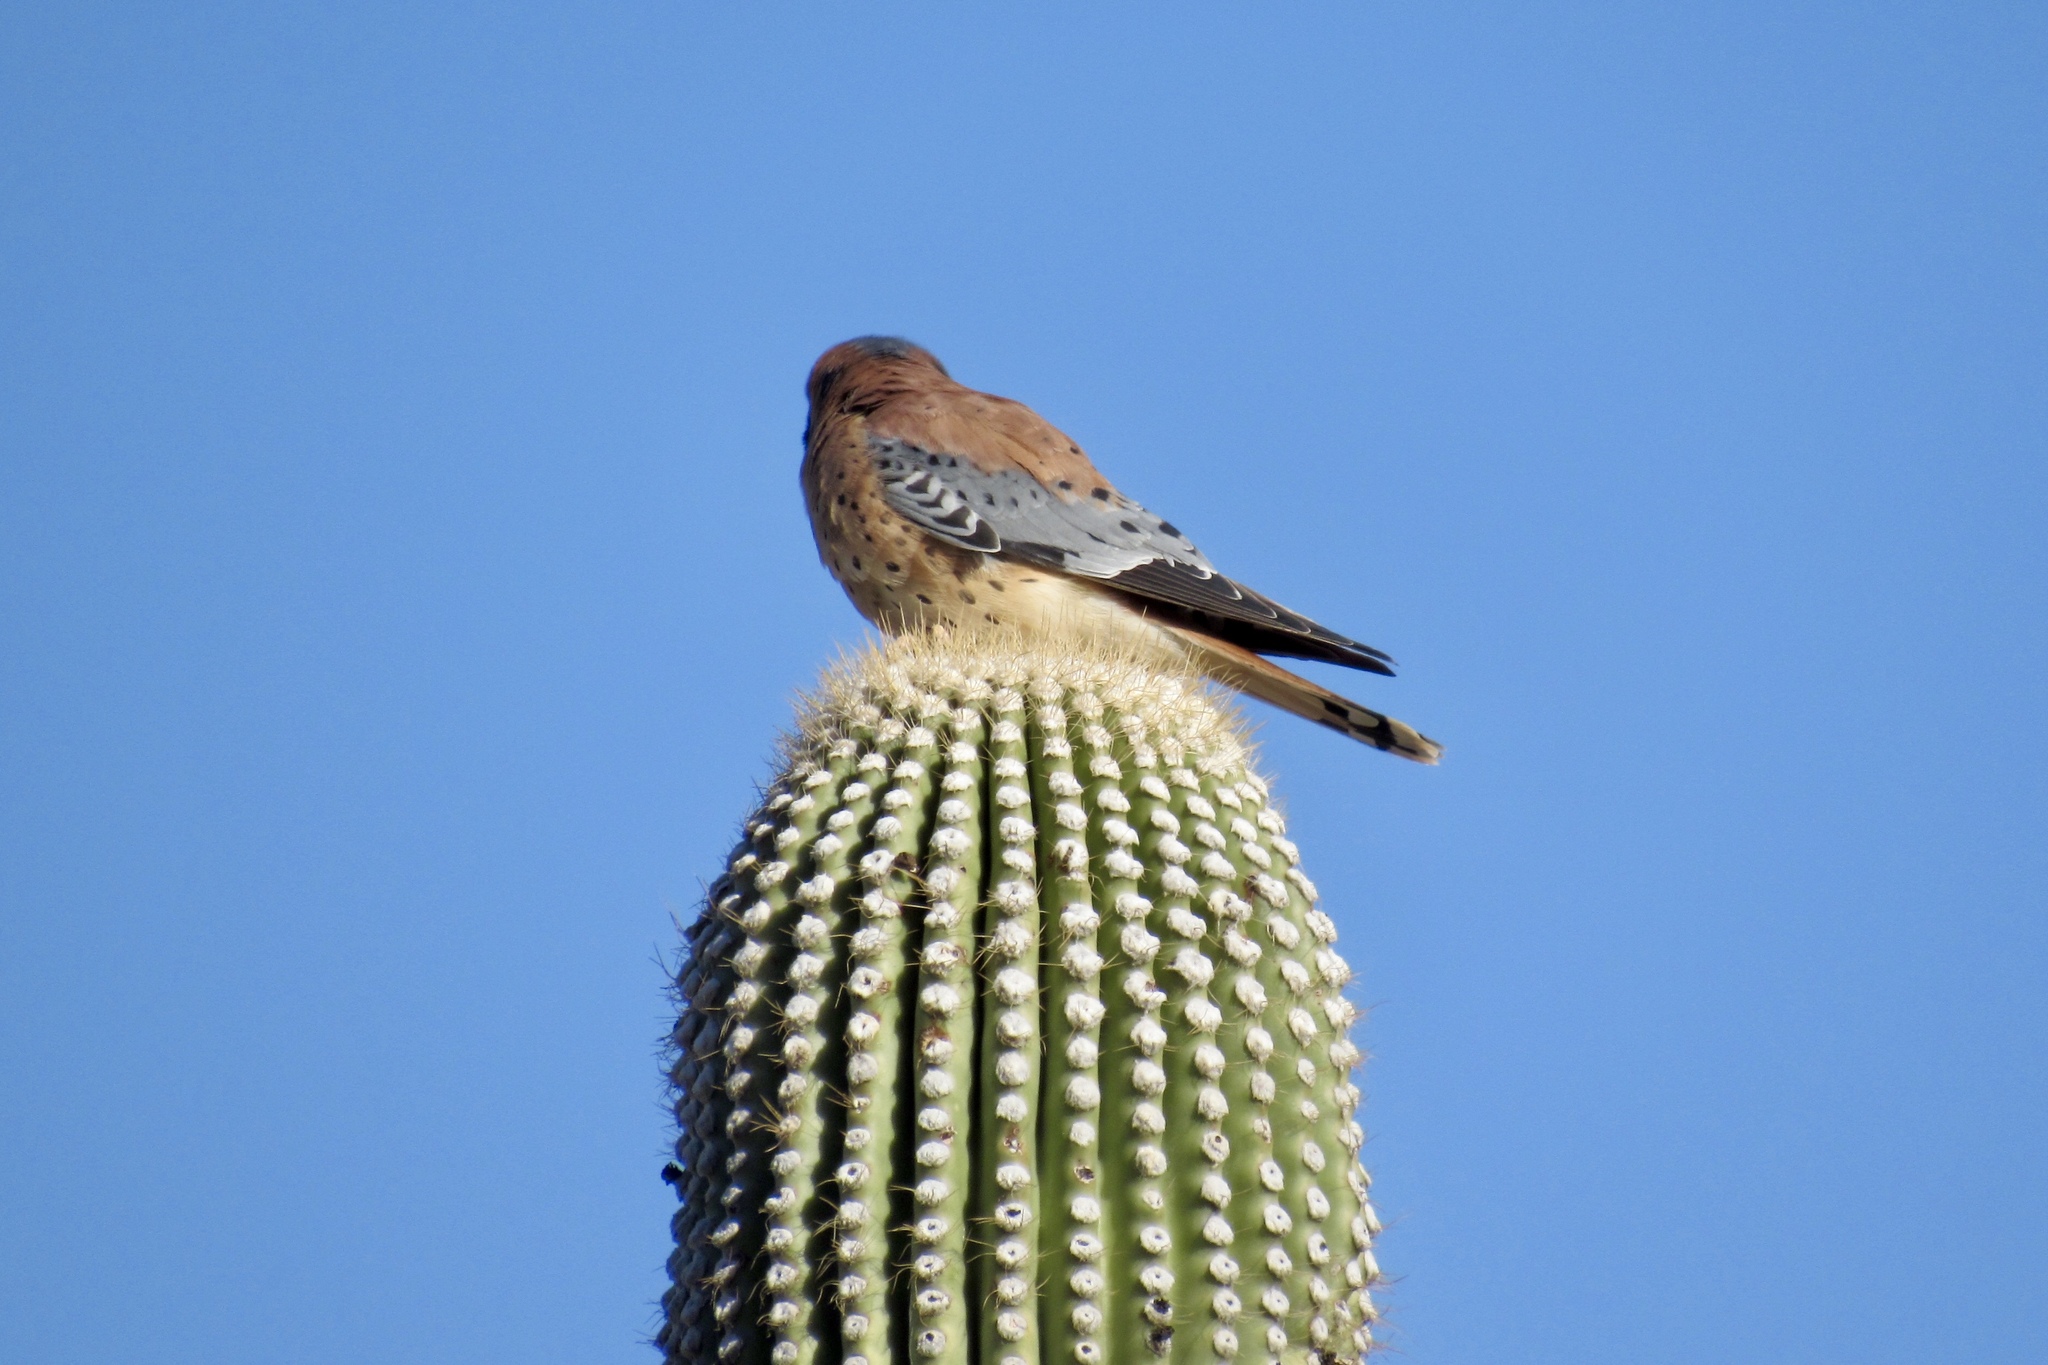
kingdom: Animalia
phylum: Chordata
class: Aves
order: Falconiformes
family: Falconidae
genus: Falco
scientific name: Falco sparverius
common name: American kestrel
